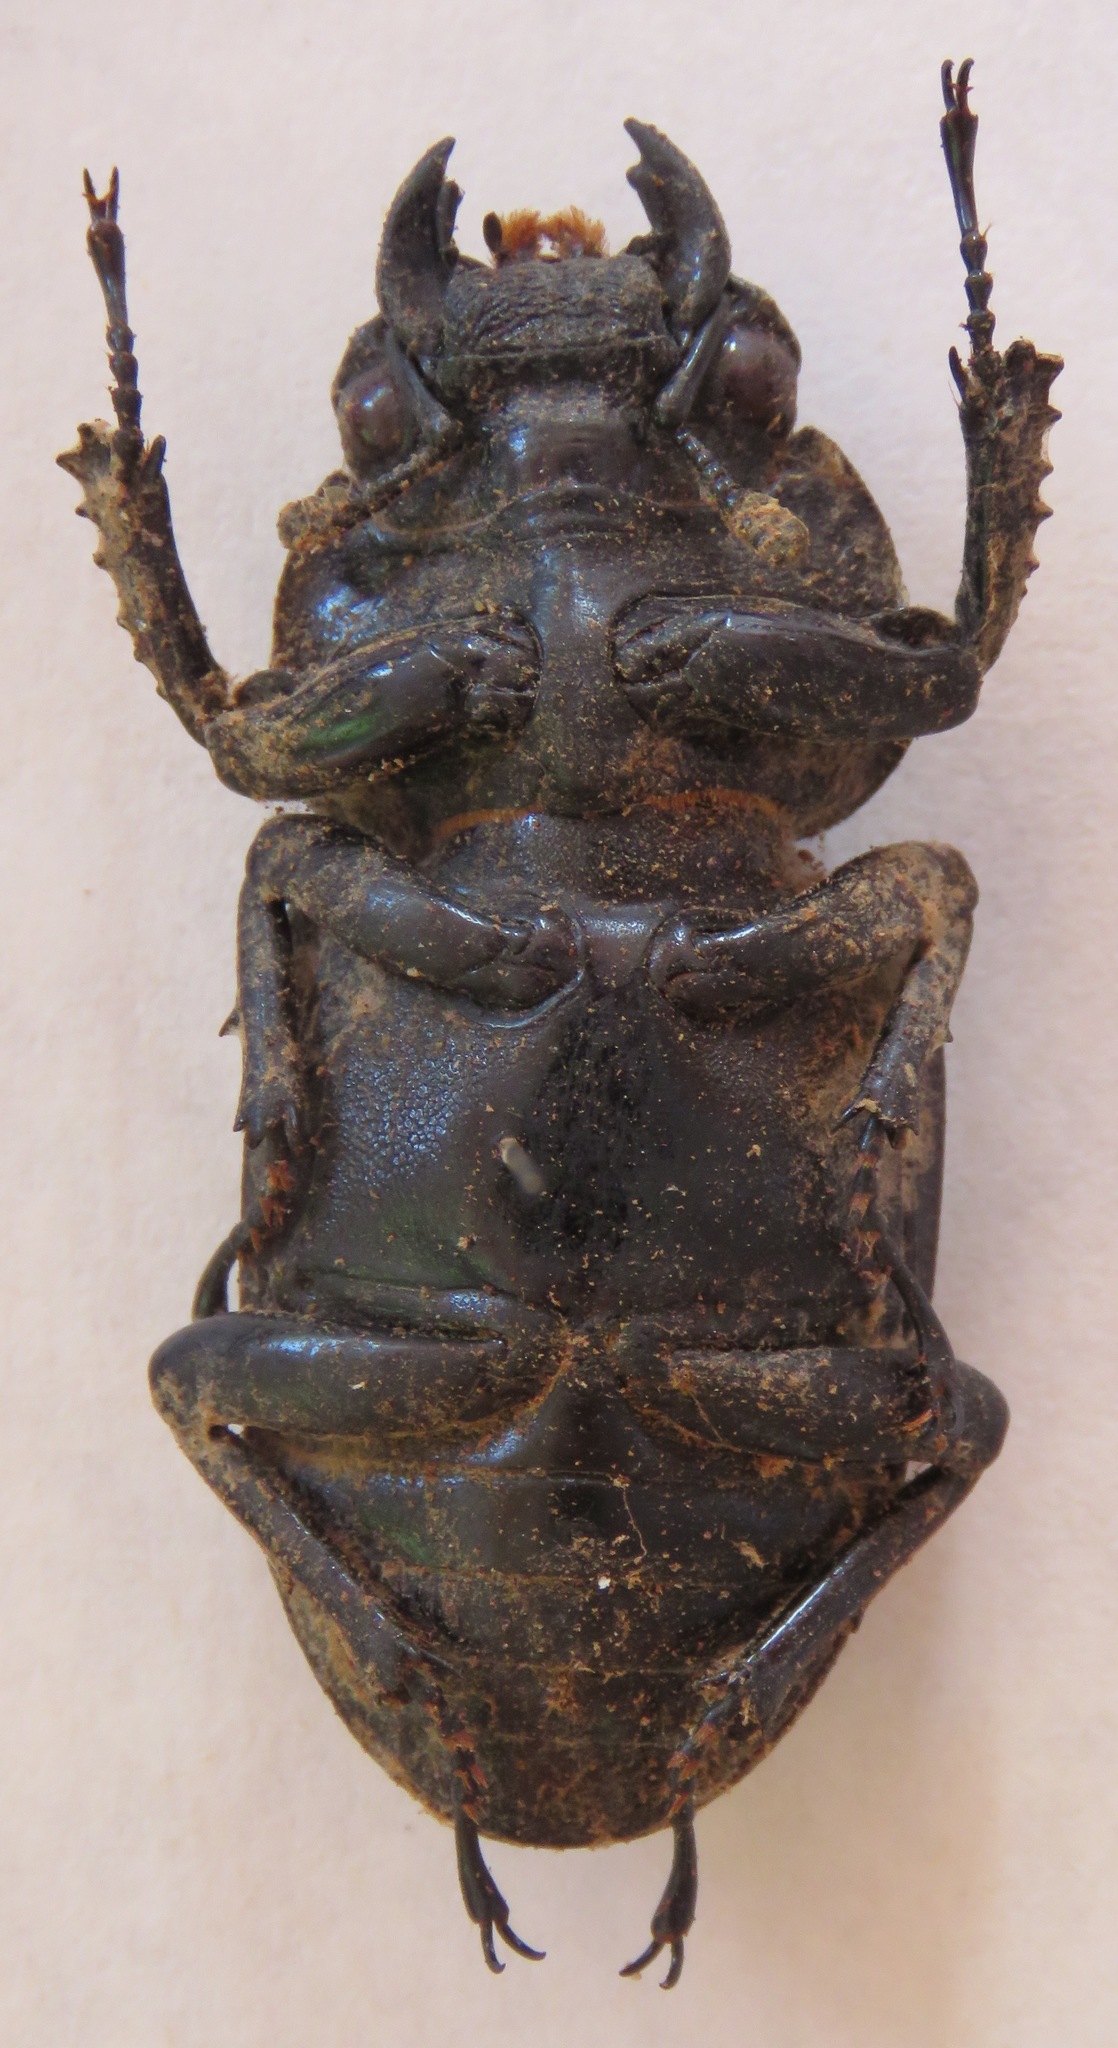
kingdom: Animalia
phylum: Arthropoda
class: Insecta
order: Coleoptera
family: Lucanidae
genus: Dorcus
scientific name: Dorcus antaeus
